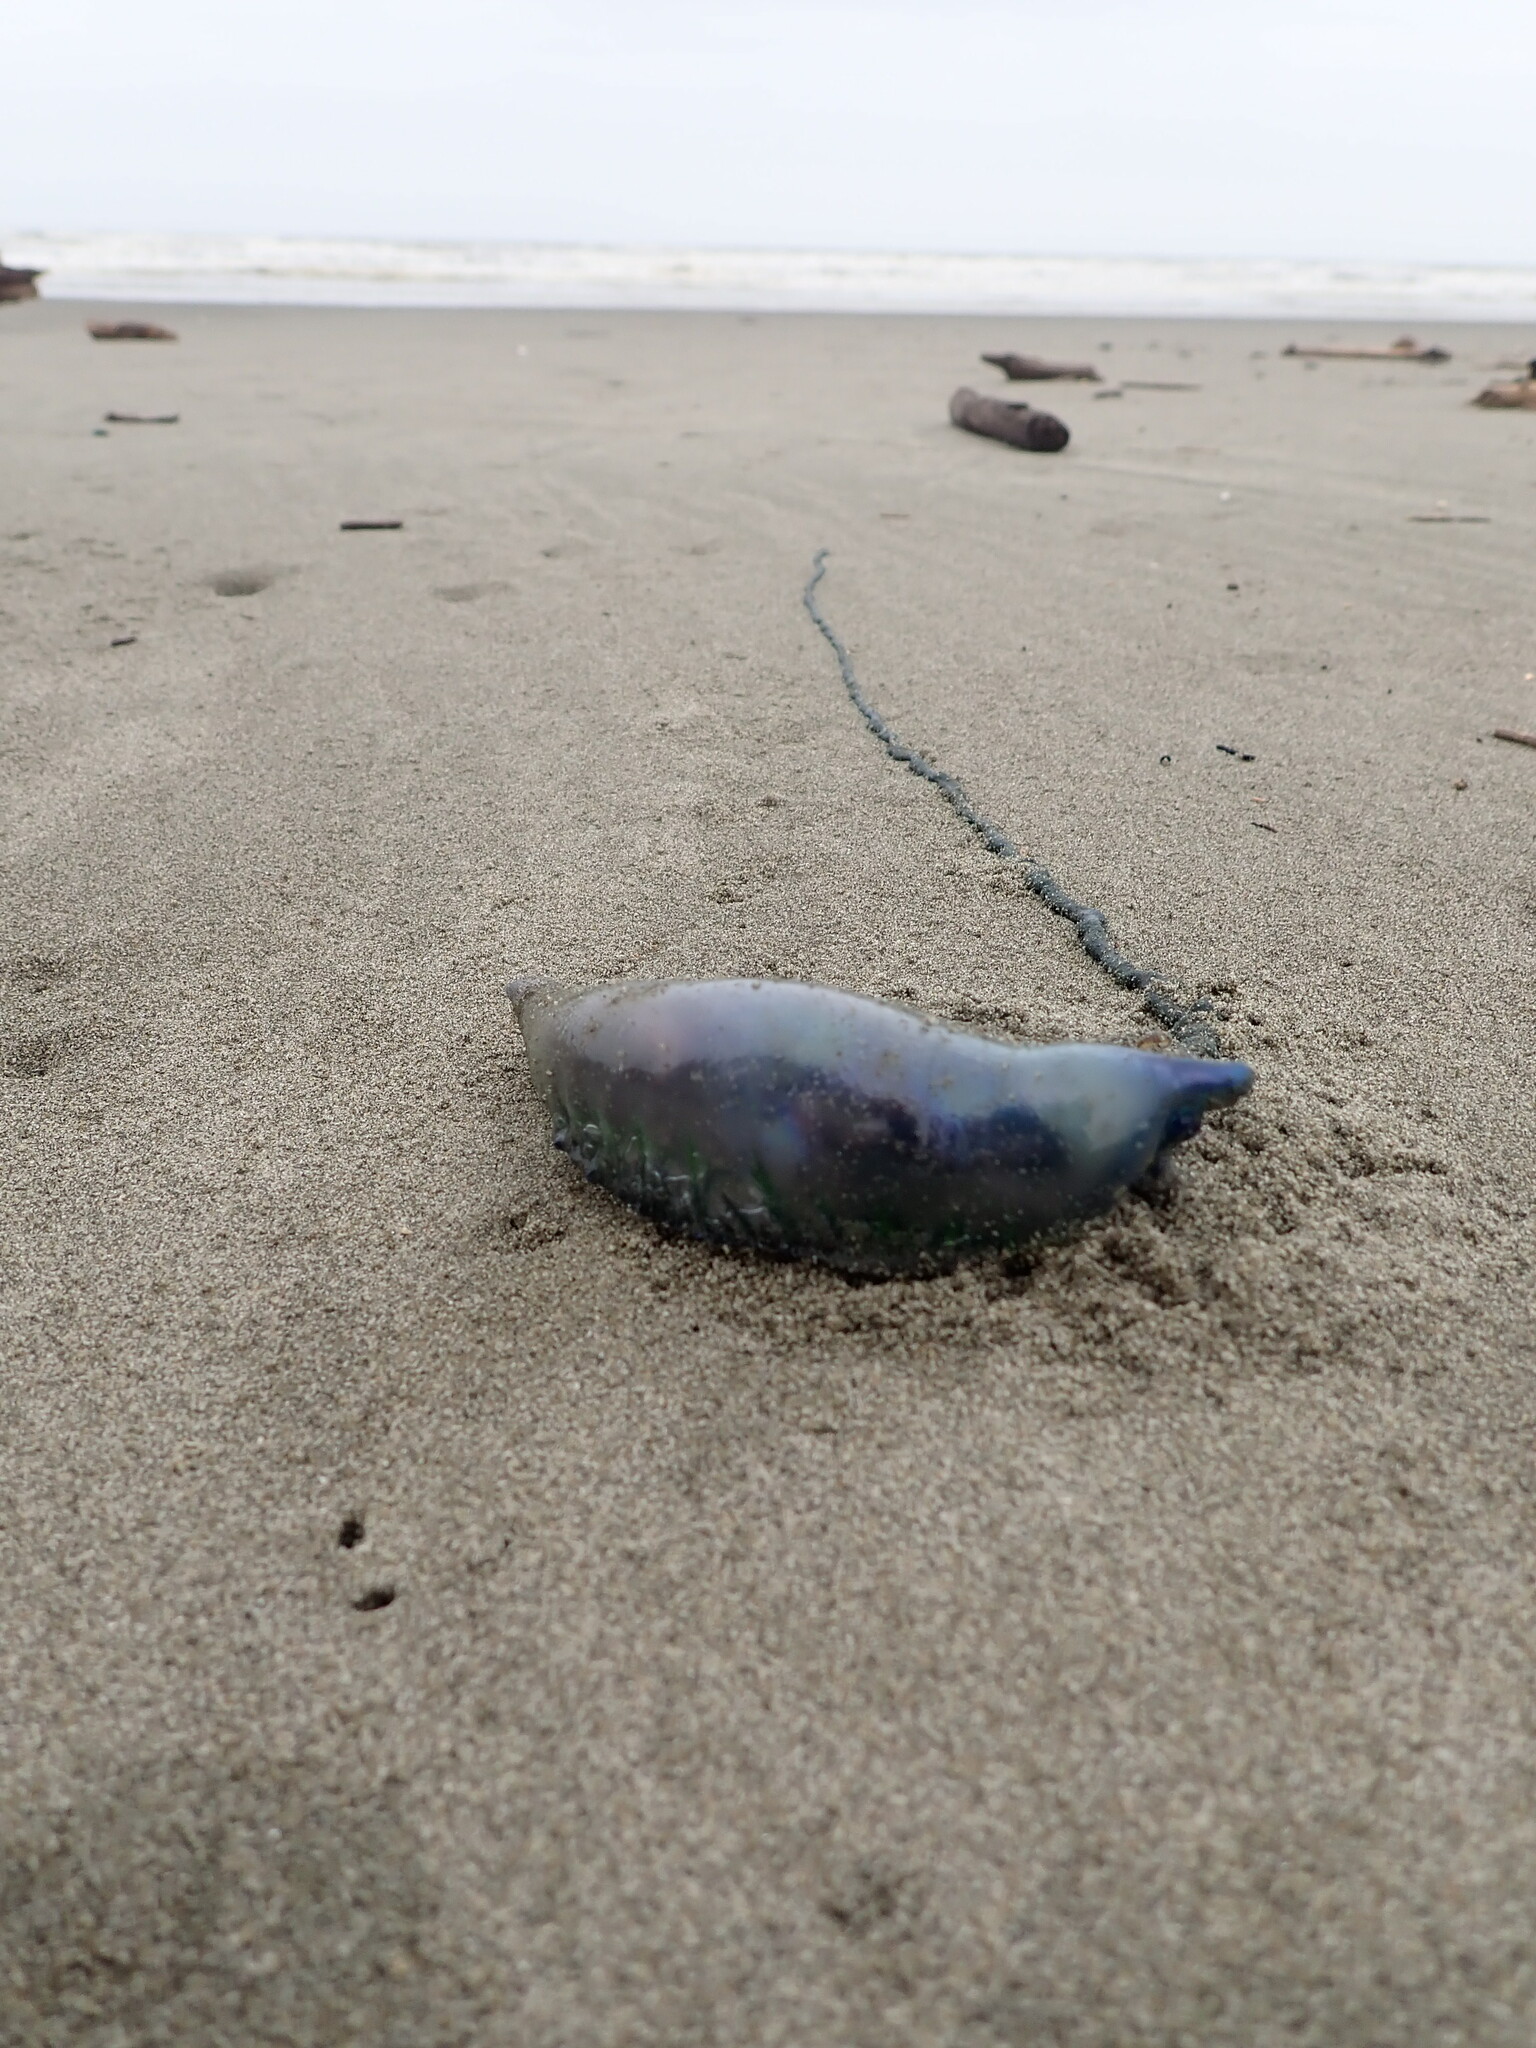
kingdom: Animalia
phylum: Cnidaria
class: Hydrozoa
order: Siphonophorae
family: Physaliidae
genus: Physalia
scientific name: Physalia physalis
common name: Portuguese man-of-war
